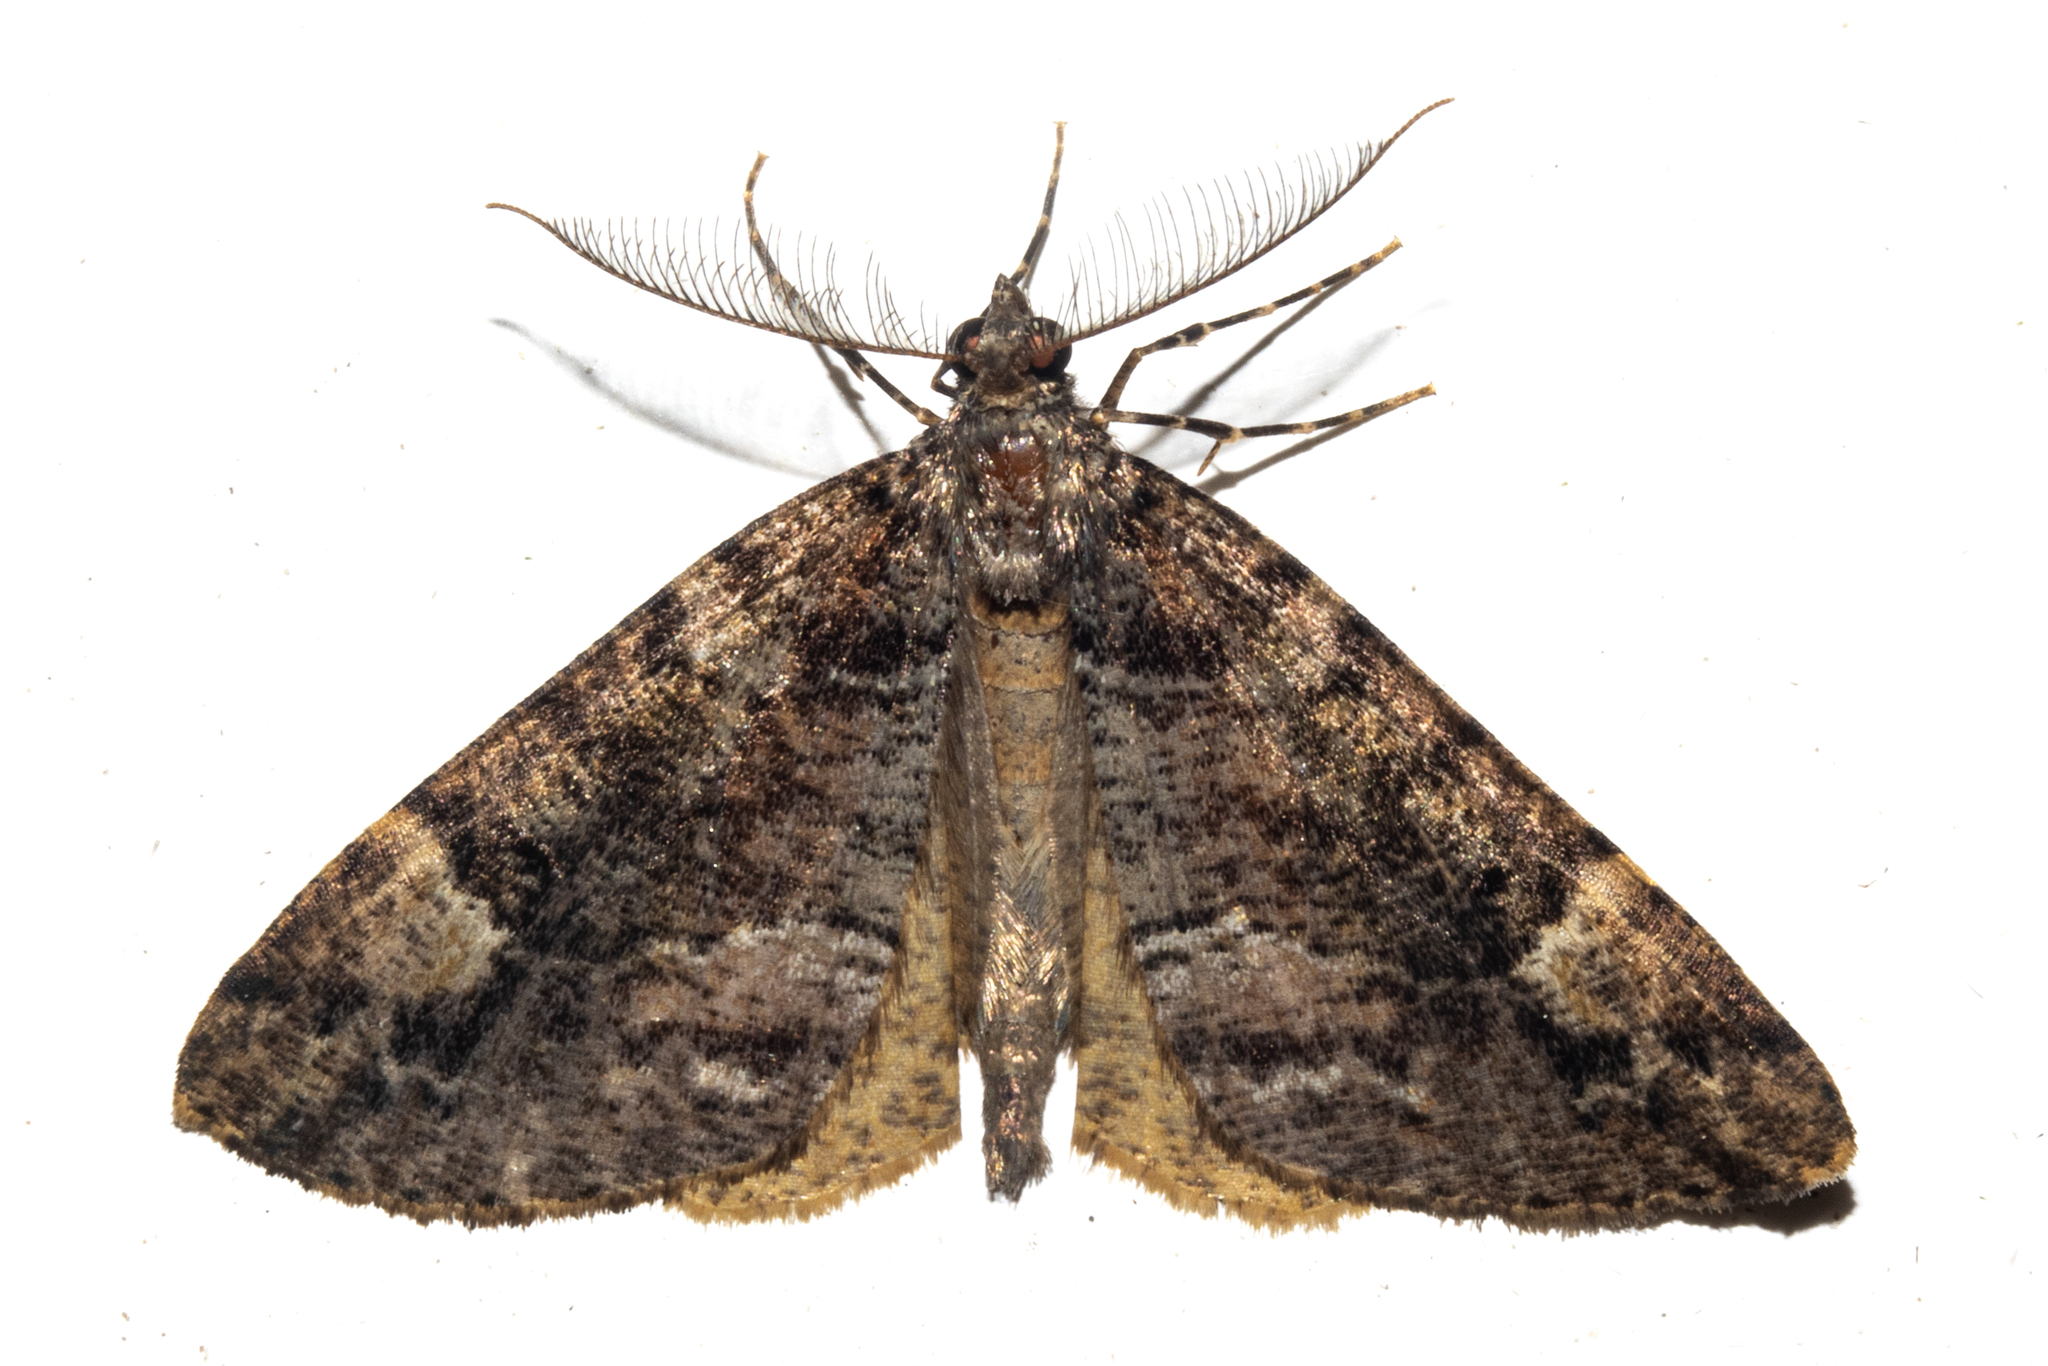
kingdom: Animalia
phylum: Arthropoda
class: Insecta
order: Lepidoptera
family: Geometridae
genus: Pseudocoremia
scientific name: Pseudocoremia productata
